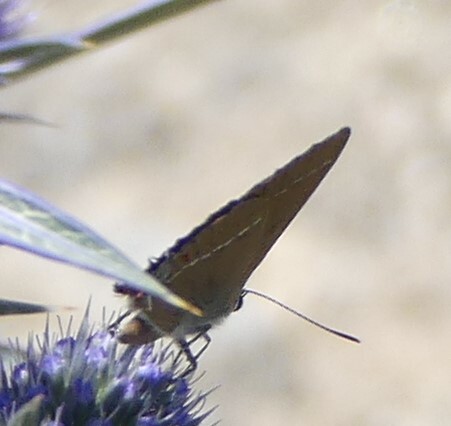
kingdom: Animalia
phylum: Arthropoda
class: Insecta
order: Lepidoptera
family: Lycaenidae
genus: Tuttiola
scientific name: Tuttiola spini
